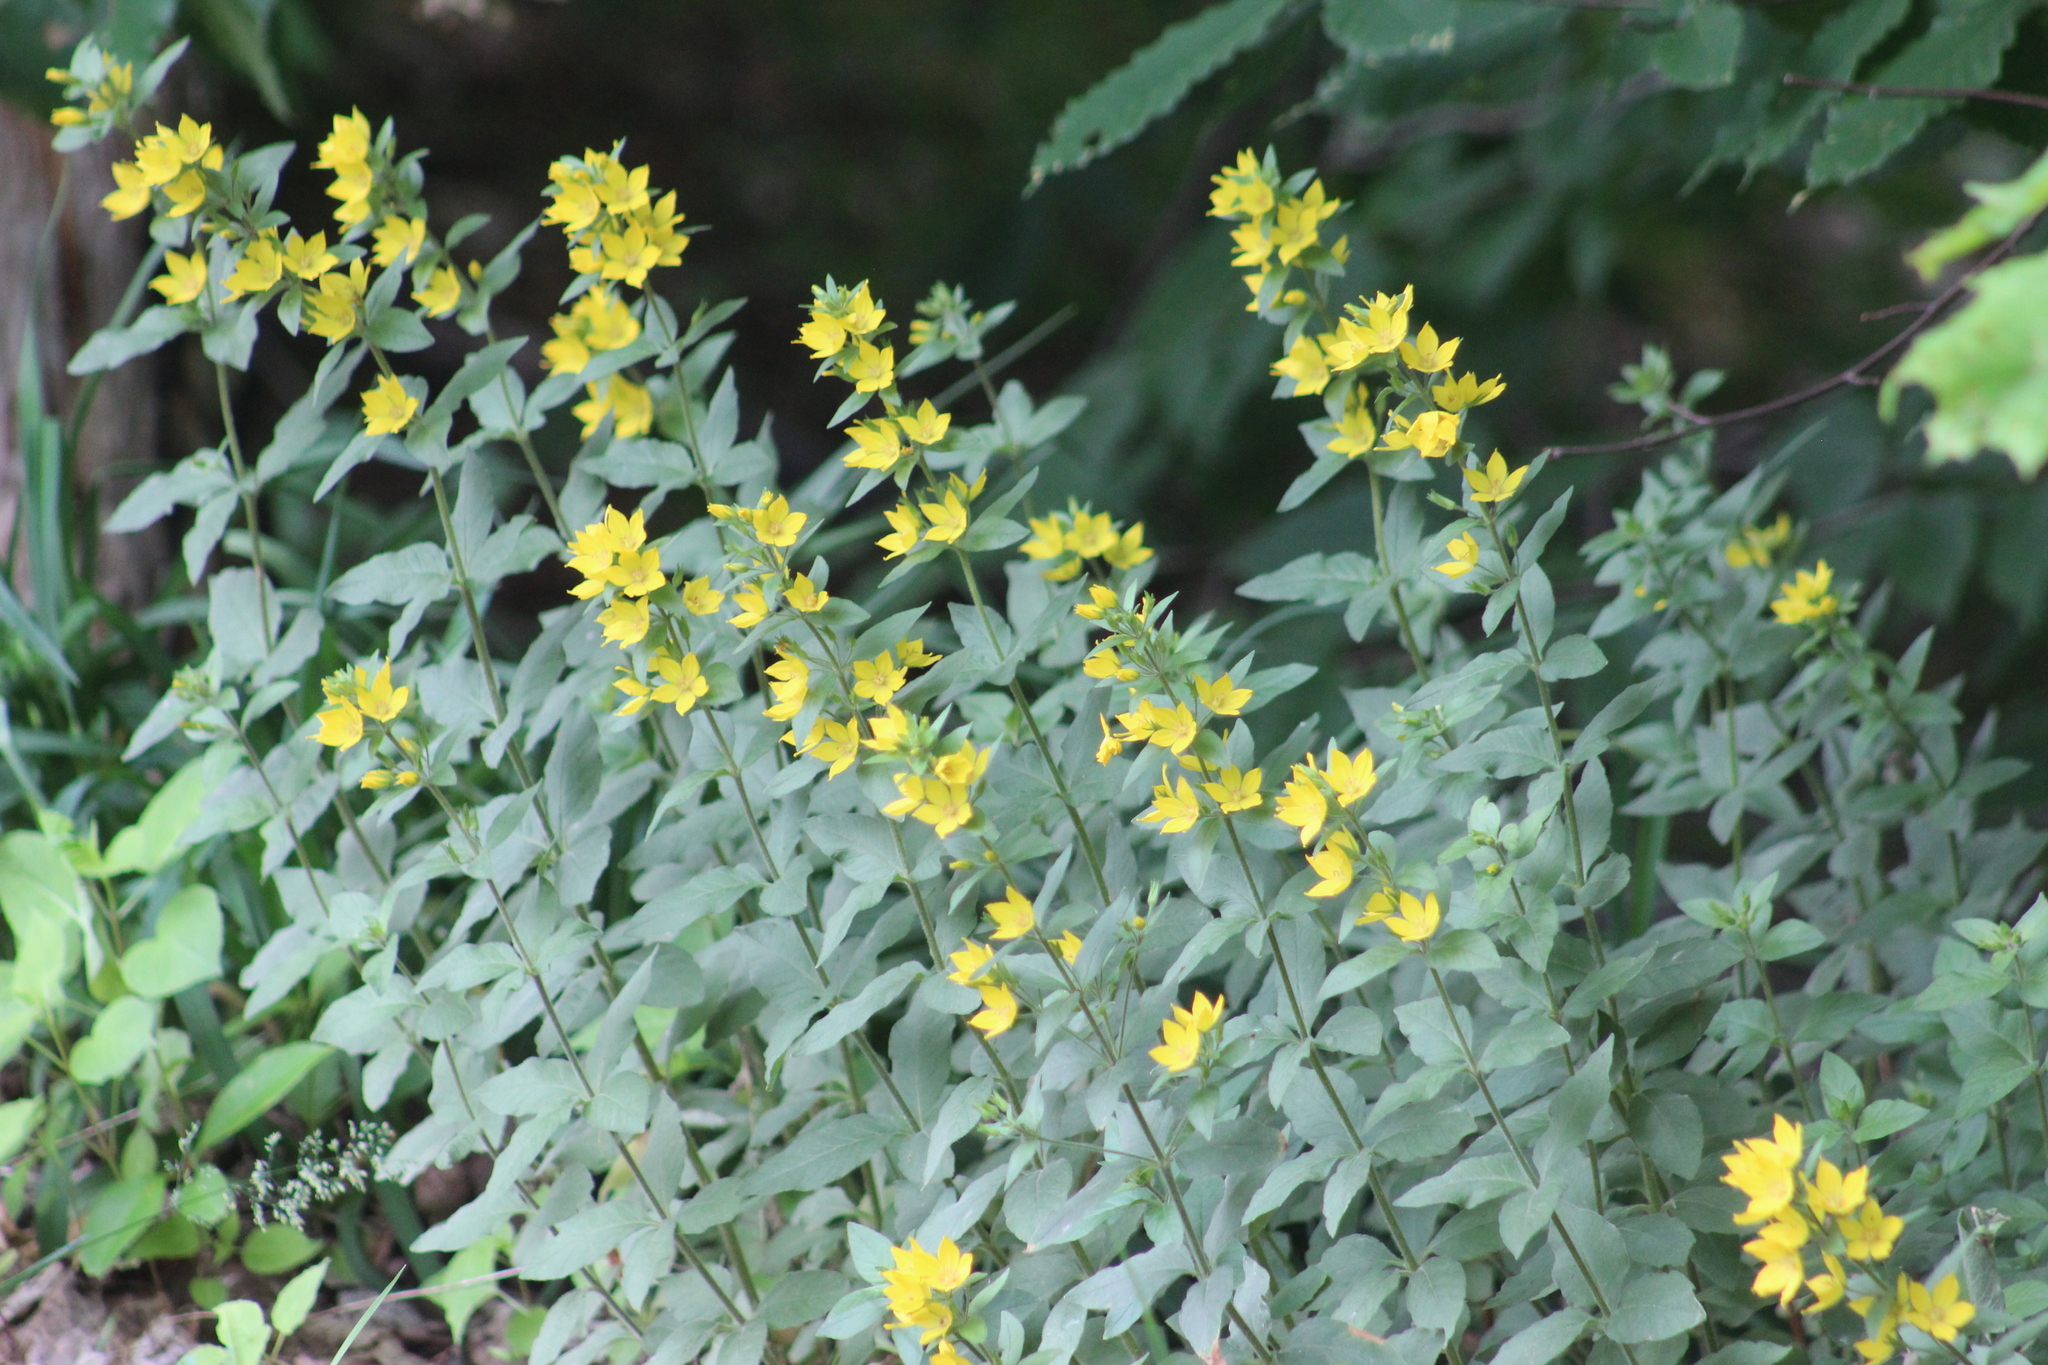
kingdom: Plantae
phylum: Tracheophyta
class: Magnoliopsida
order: Ericales
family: Primulaceae
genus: Lysimachia
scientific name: Lysimachia punctata
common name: Dotted loosestrife
